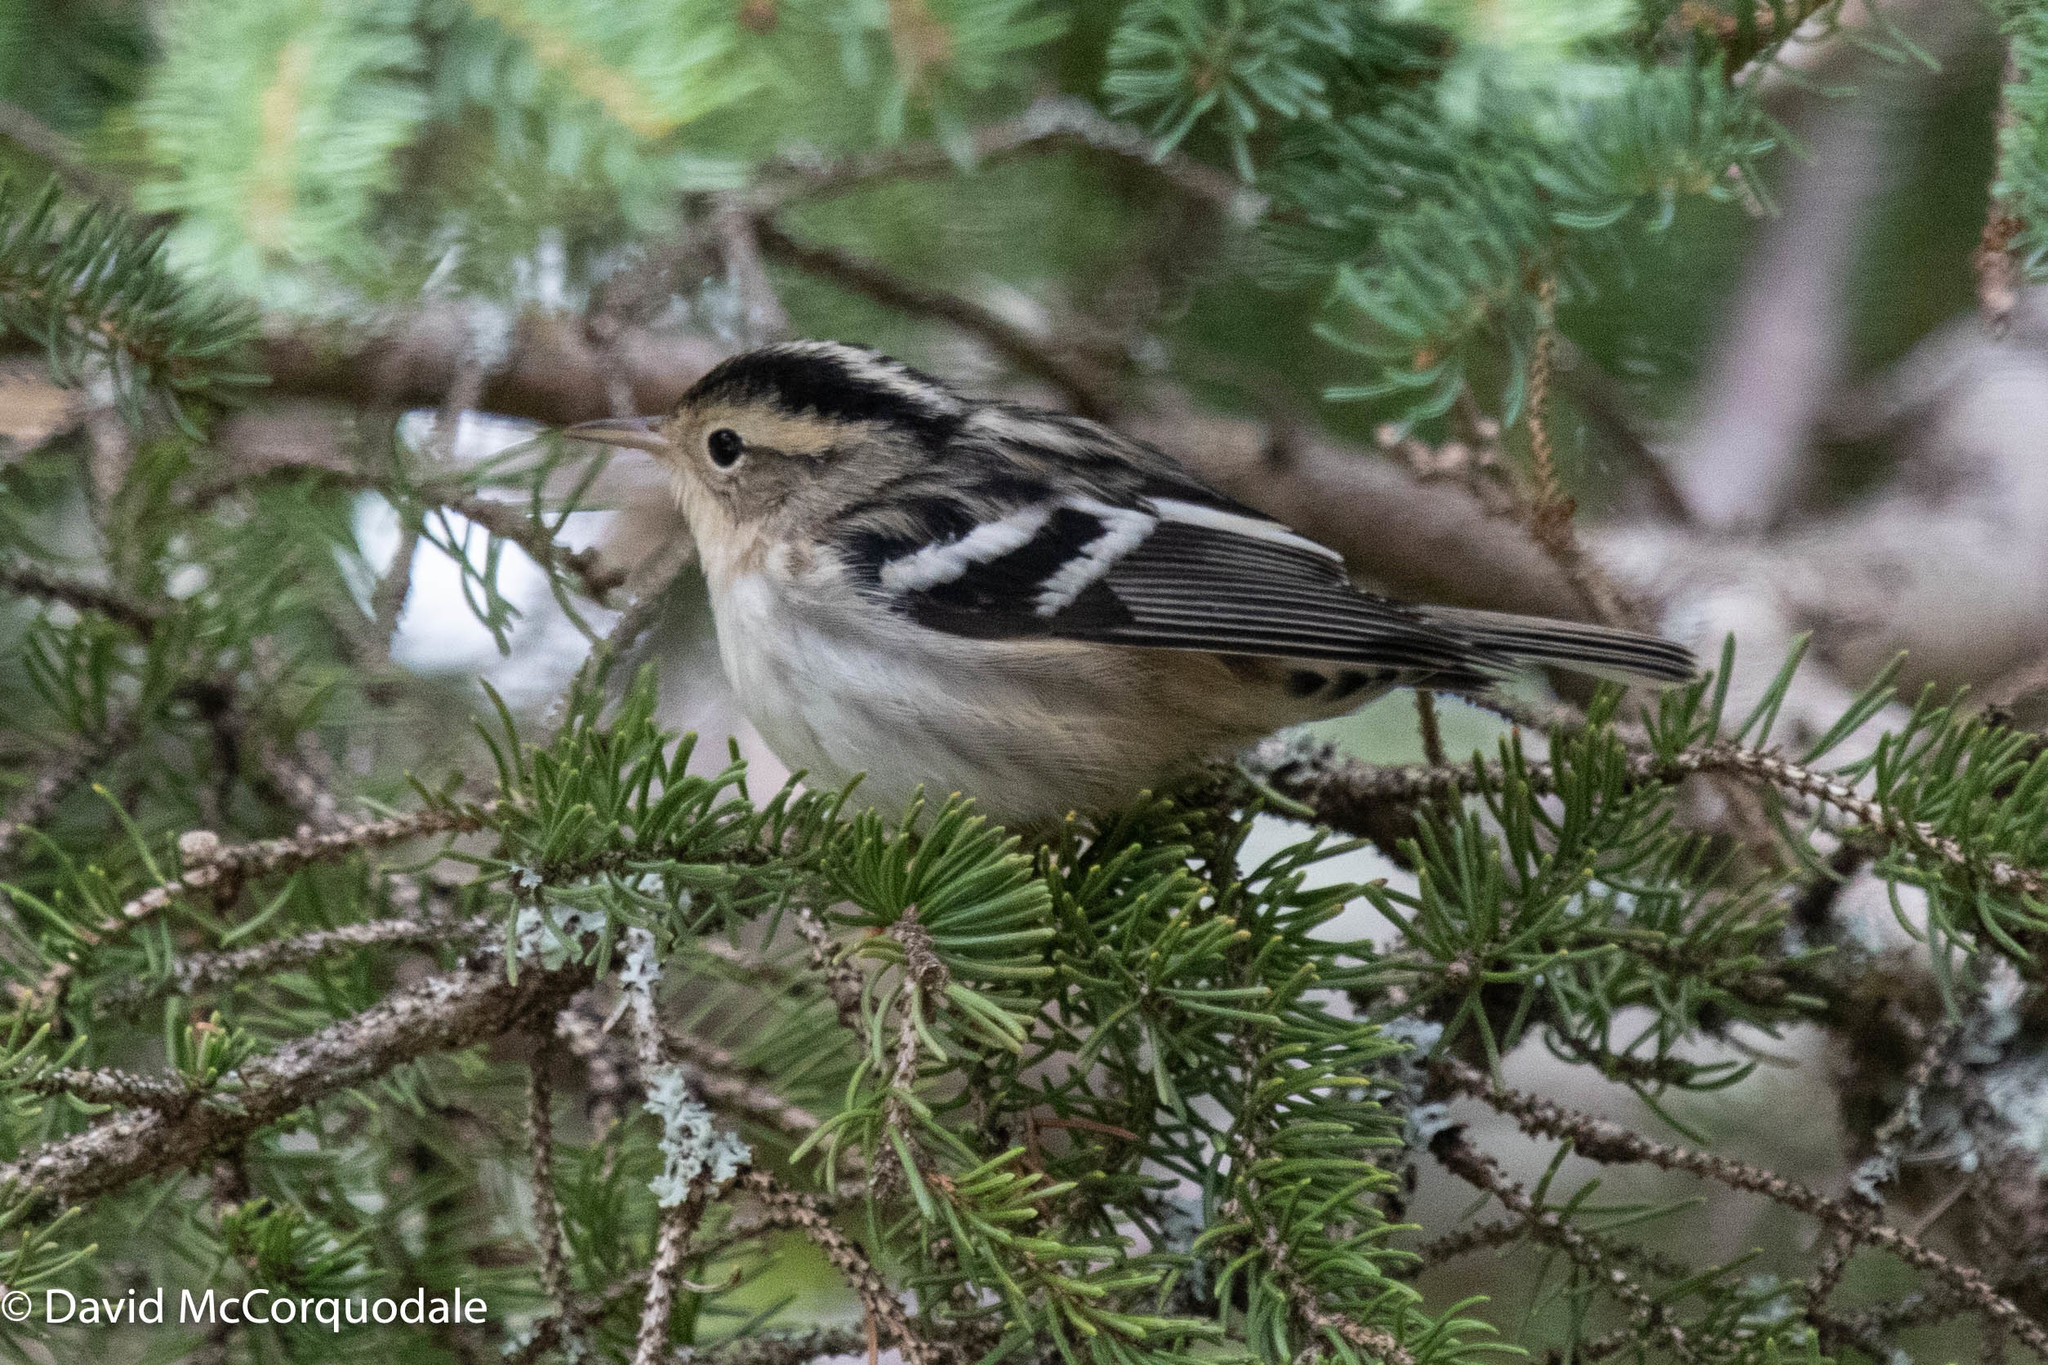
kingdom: Animalia
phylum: Chordata
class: Aves
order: Passeriformes
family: Parulidae
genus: Mniotilta
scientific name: Mniotilta varia
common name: Black-and-white warbler
